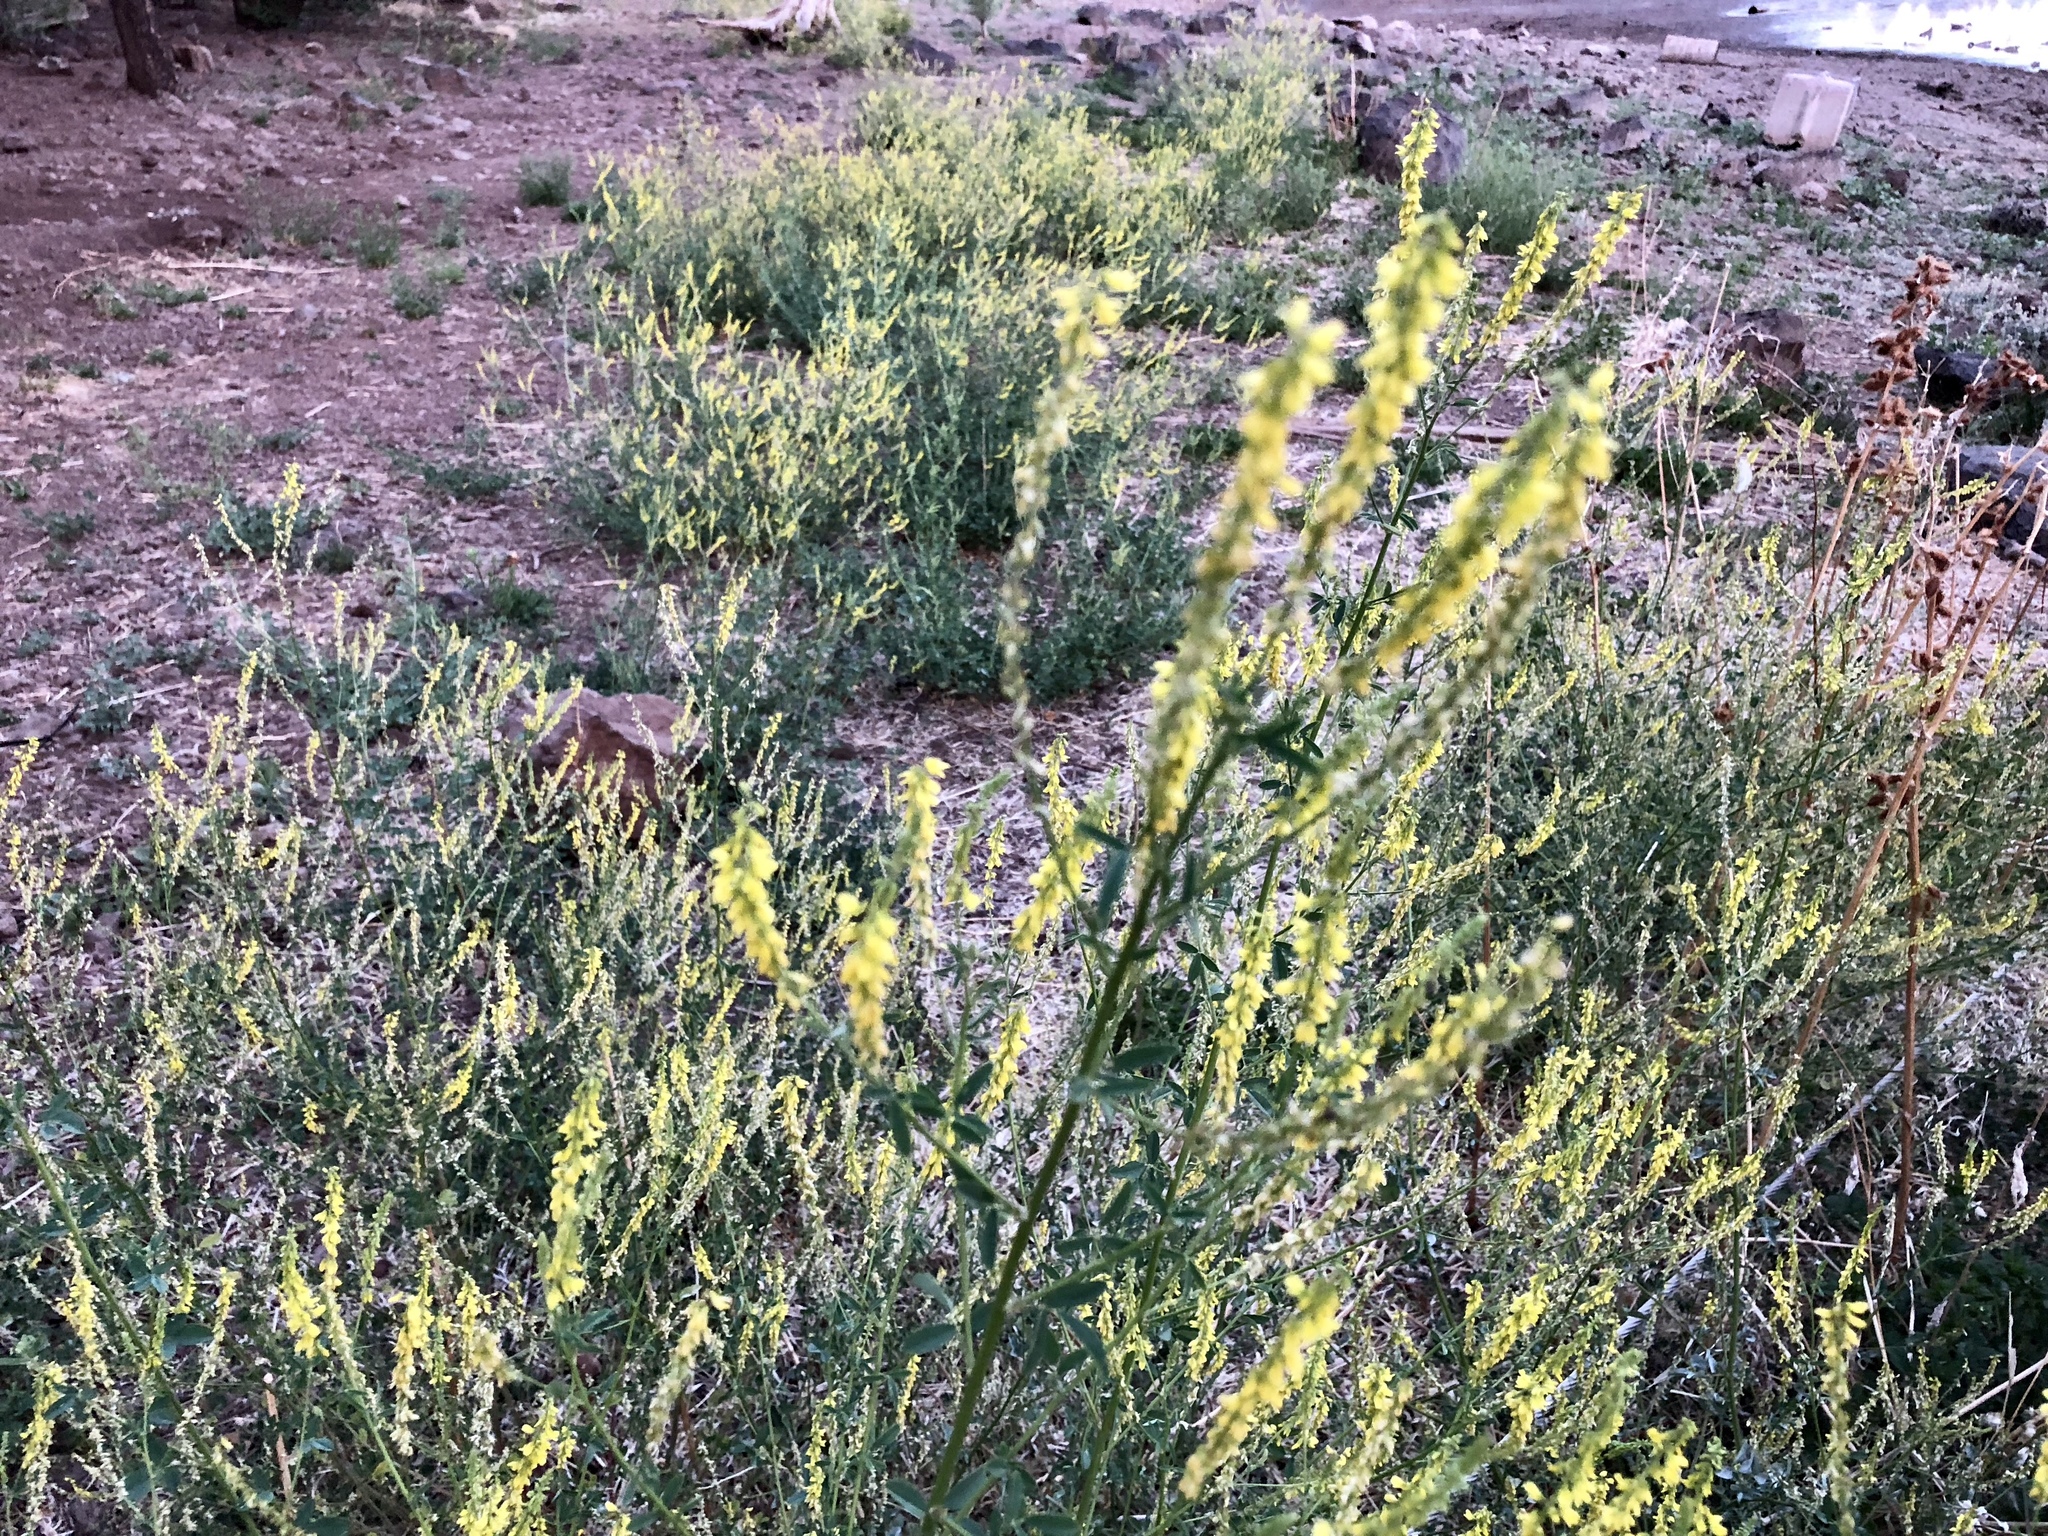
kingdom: Plantae
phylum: Tracheophyta
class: Magnoliopsida
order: Fabales
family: Fabaceae
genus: Melilotus
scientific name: Melilotus officinalis
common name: Sweetclover
